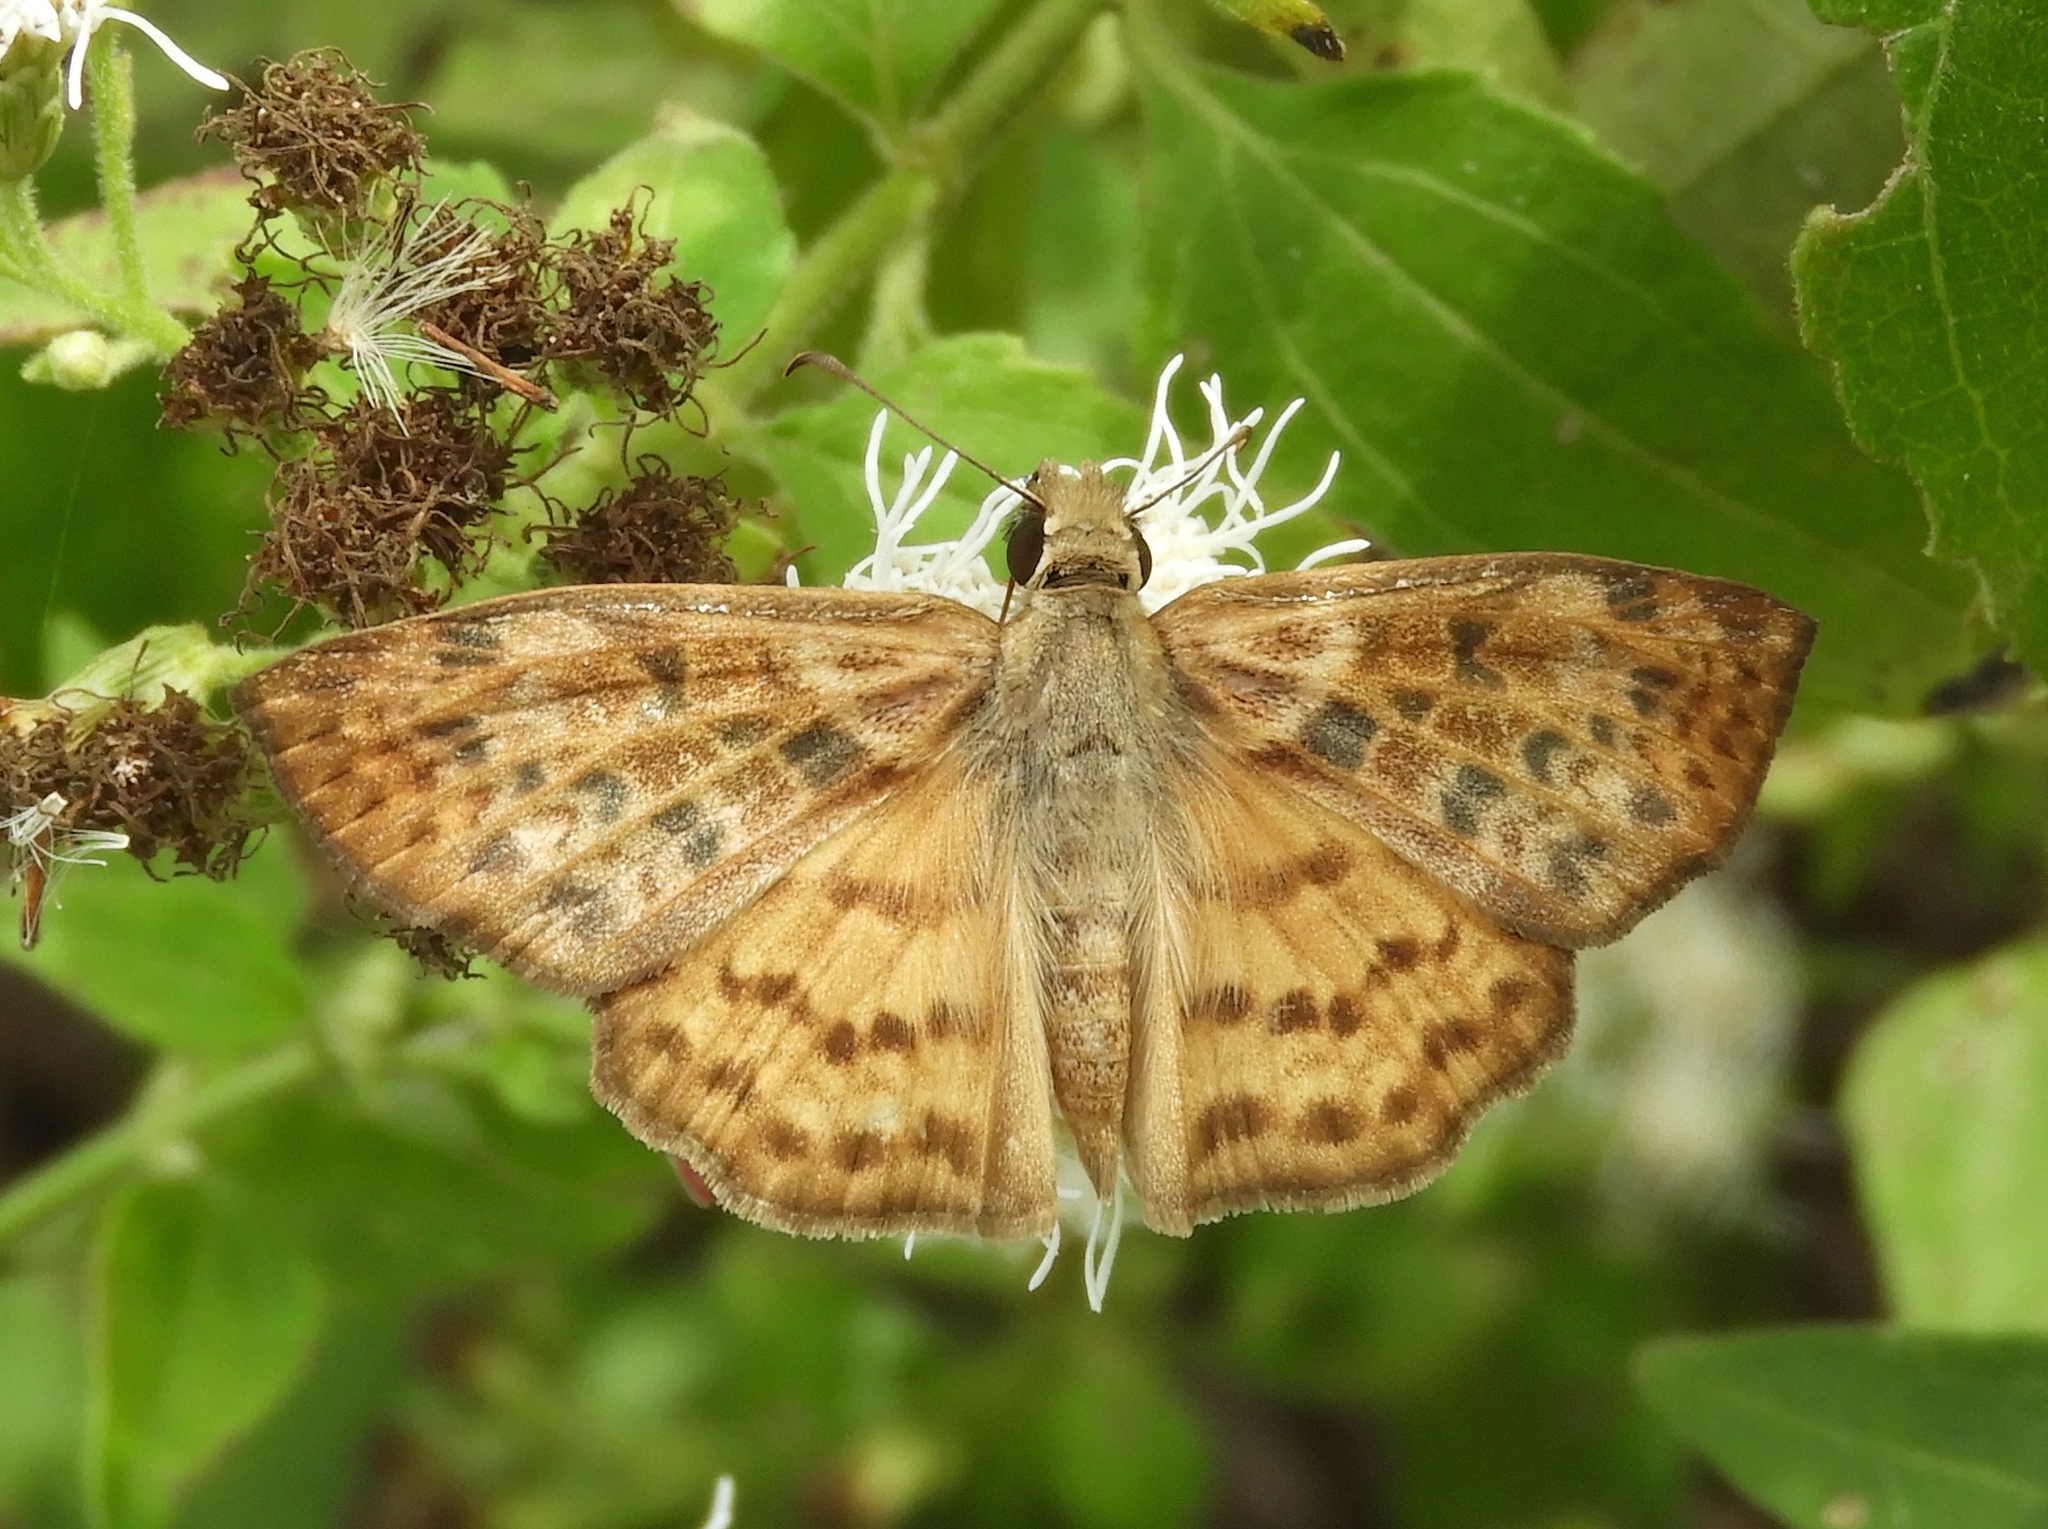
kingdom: Animalia
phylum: Arthropoda
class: Insecta
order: Lepidoptera
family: Hesperiidae
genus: Timochares
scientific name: Timochares ruptifasciata
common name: Brown-banded skipper
